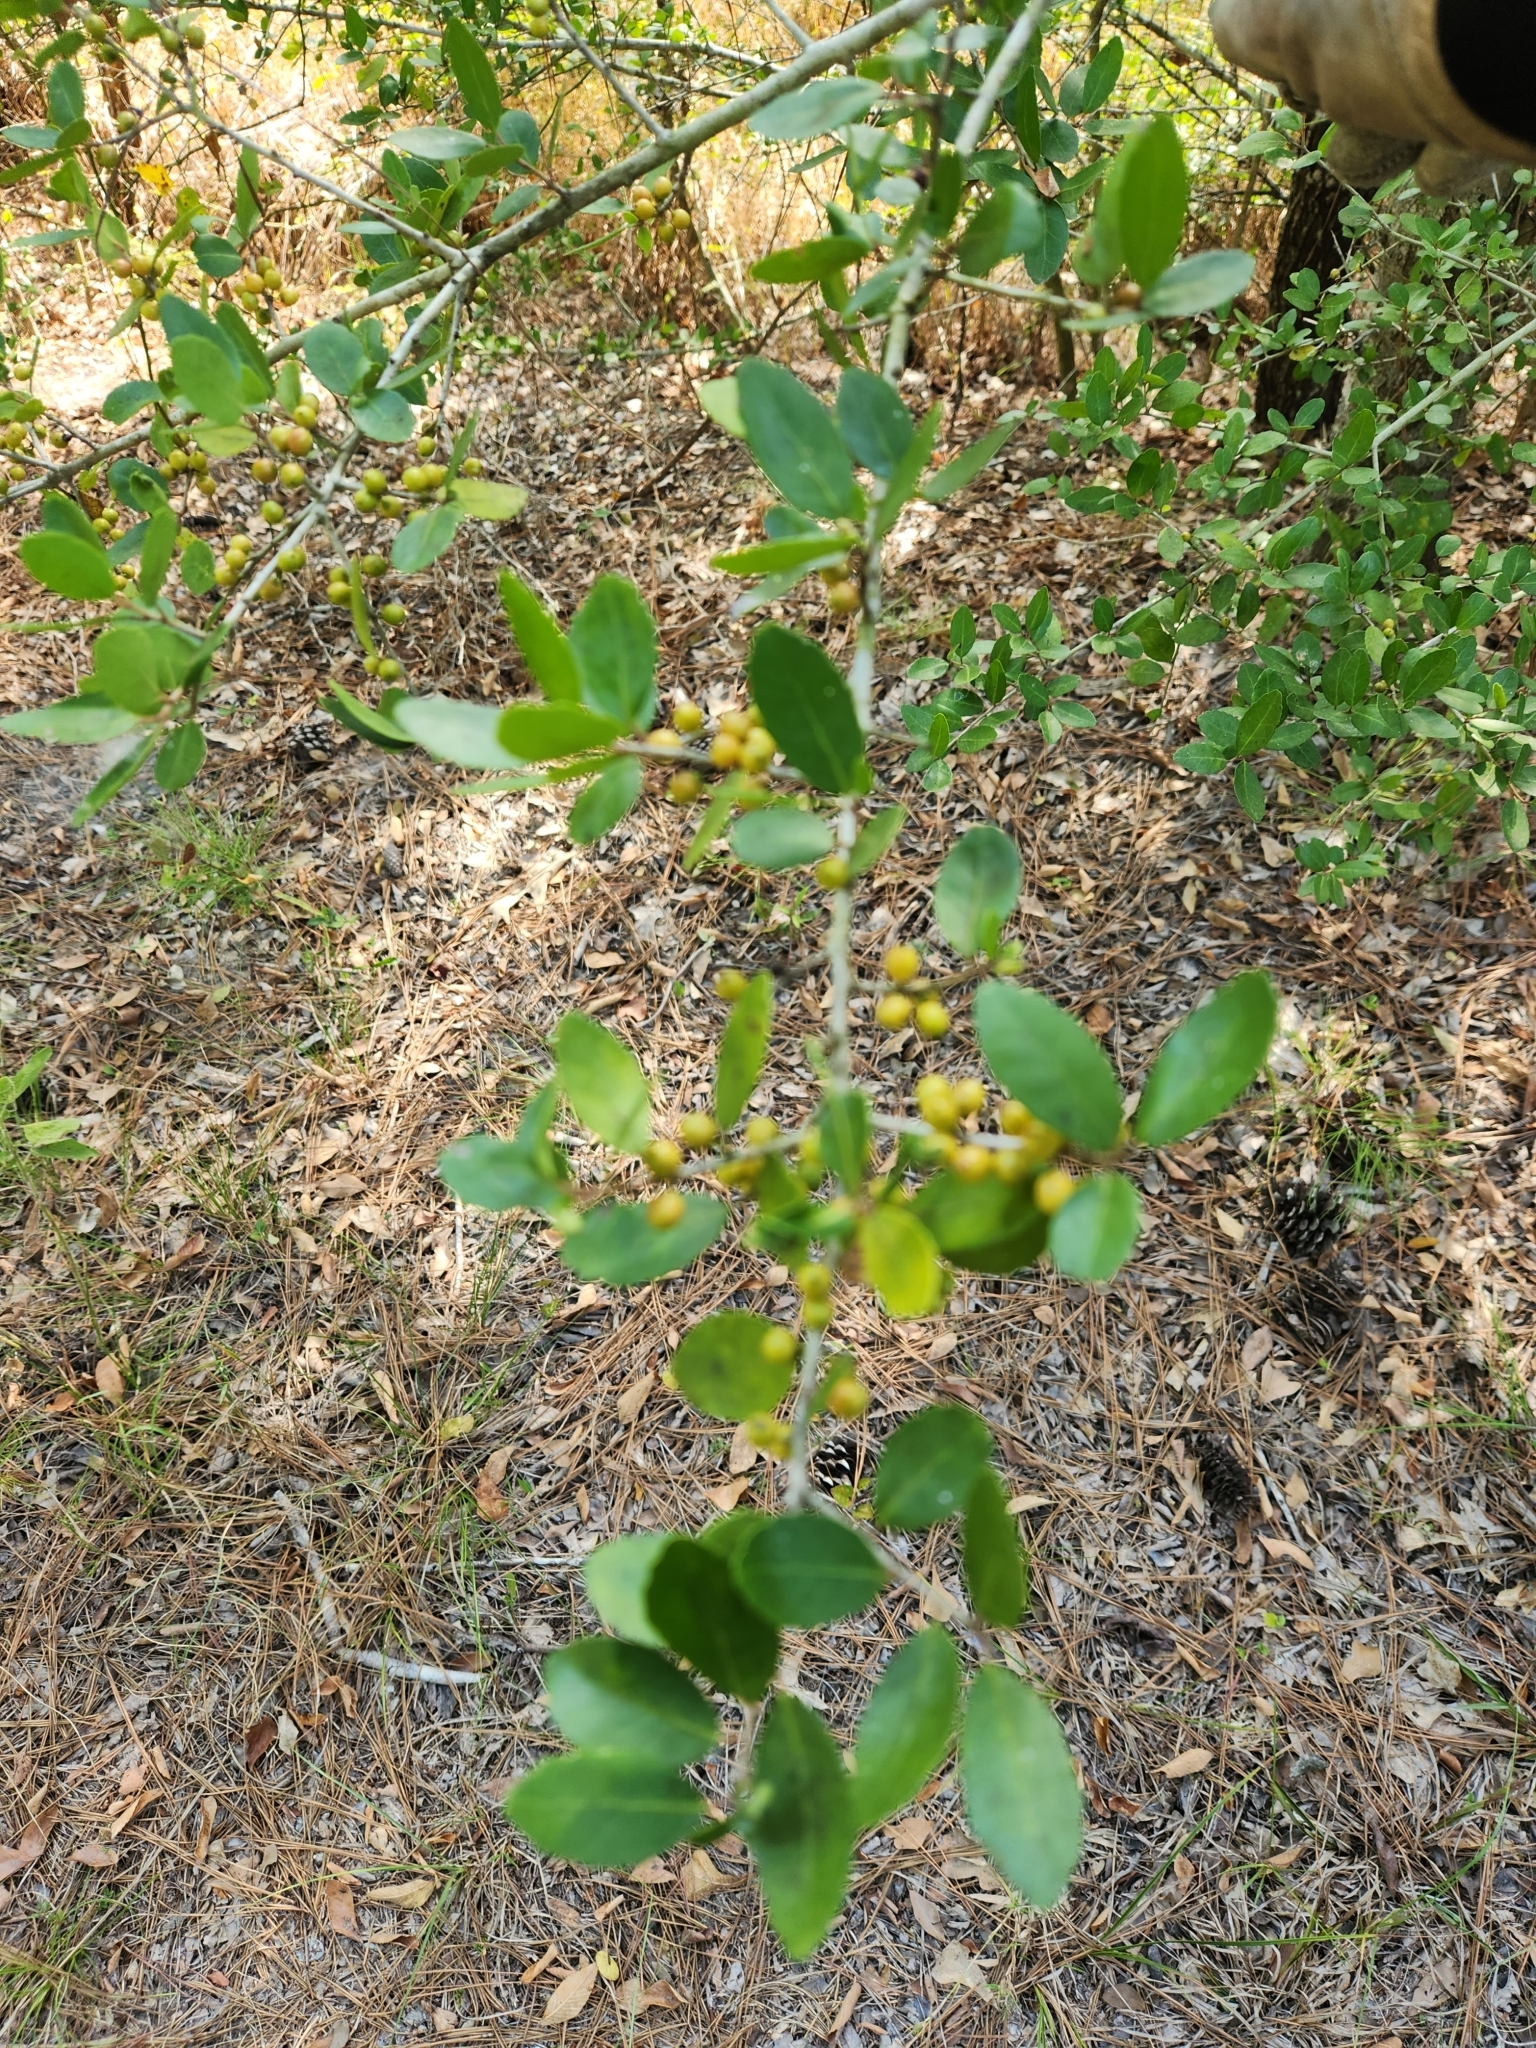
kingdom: Plantae
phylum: Tracheophyta
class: Magnoliopsida
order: Aquifoliales
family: Aquifoliaceae
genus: Ilex
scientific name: Ilex vomitoria
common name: Yaupon holly
